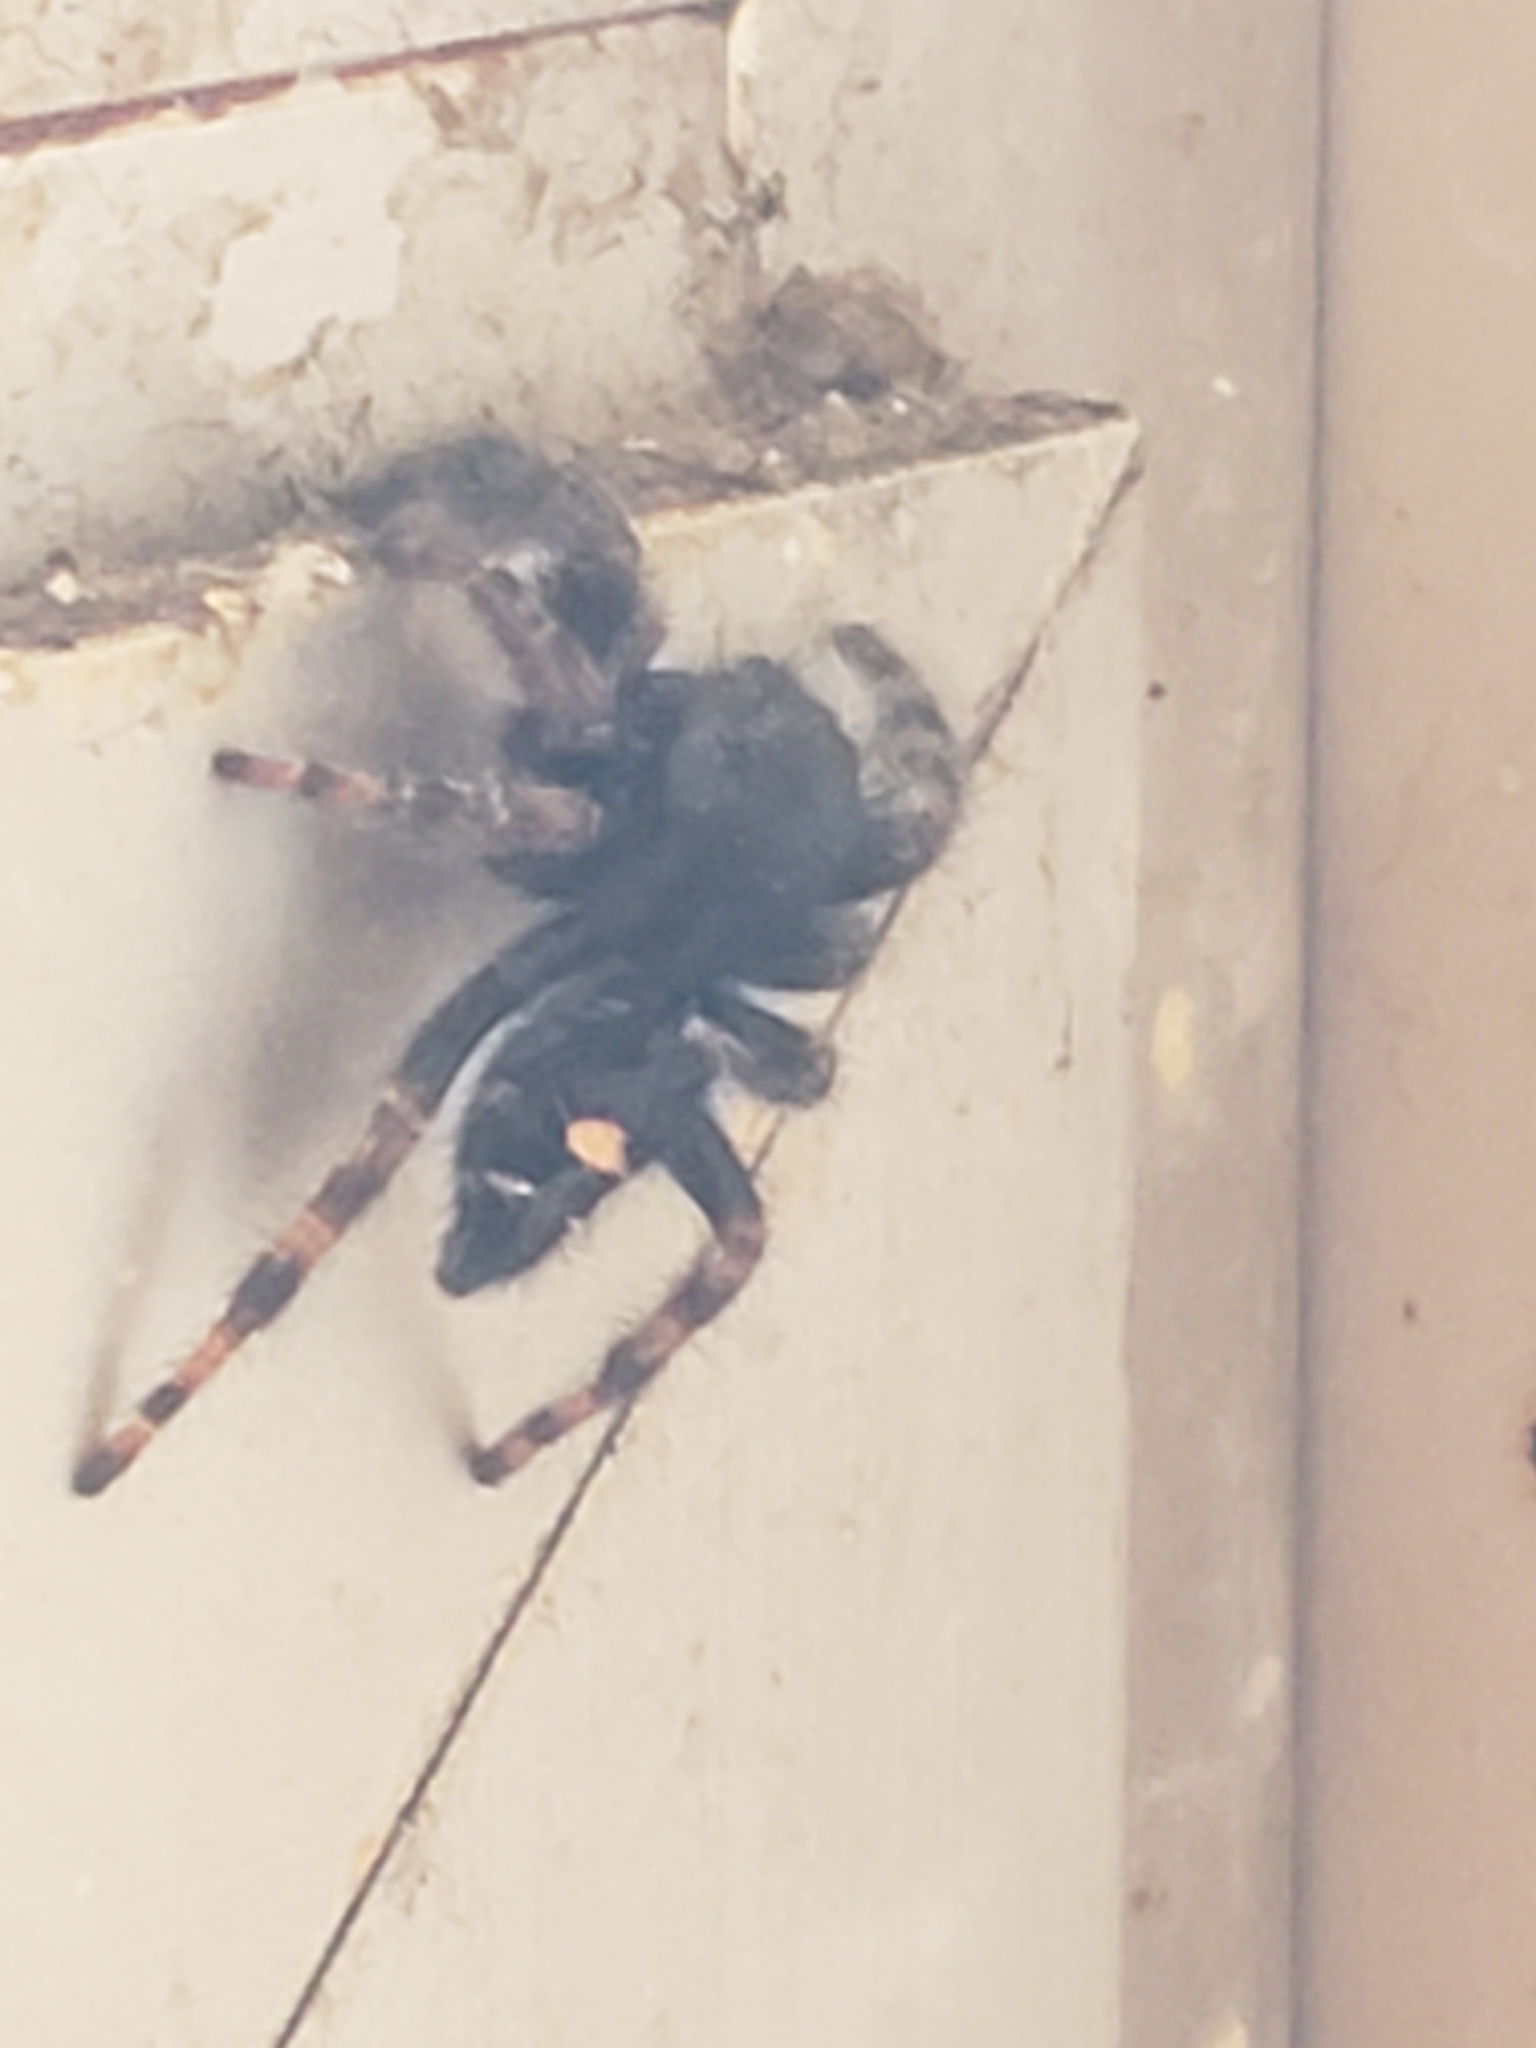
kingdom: Animalia
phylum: Arthropoda
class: Arachnida
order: Araneae
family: Salticidae
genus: Phidippus
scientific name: Phidippus audax
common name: Bold jumper
